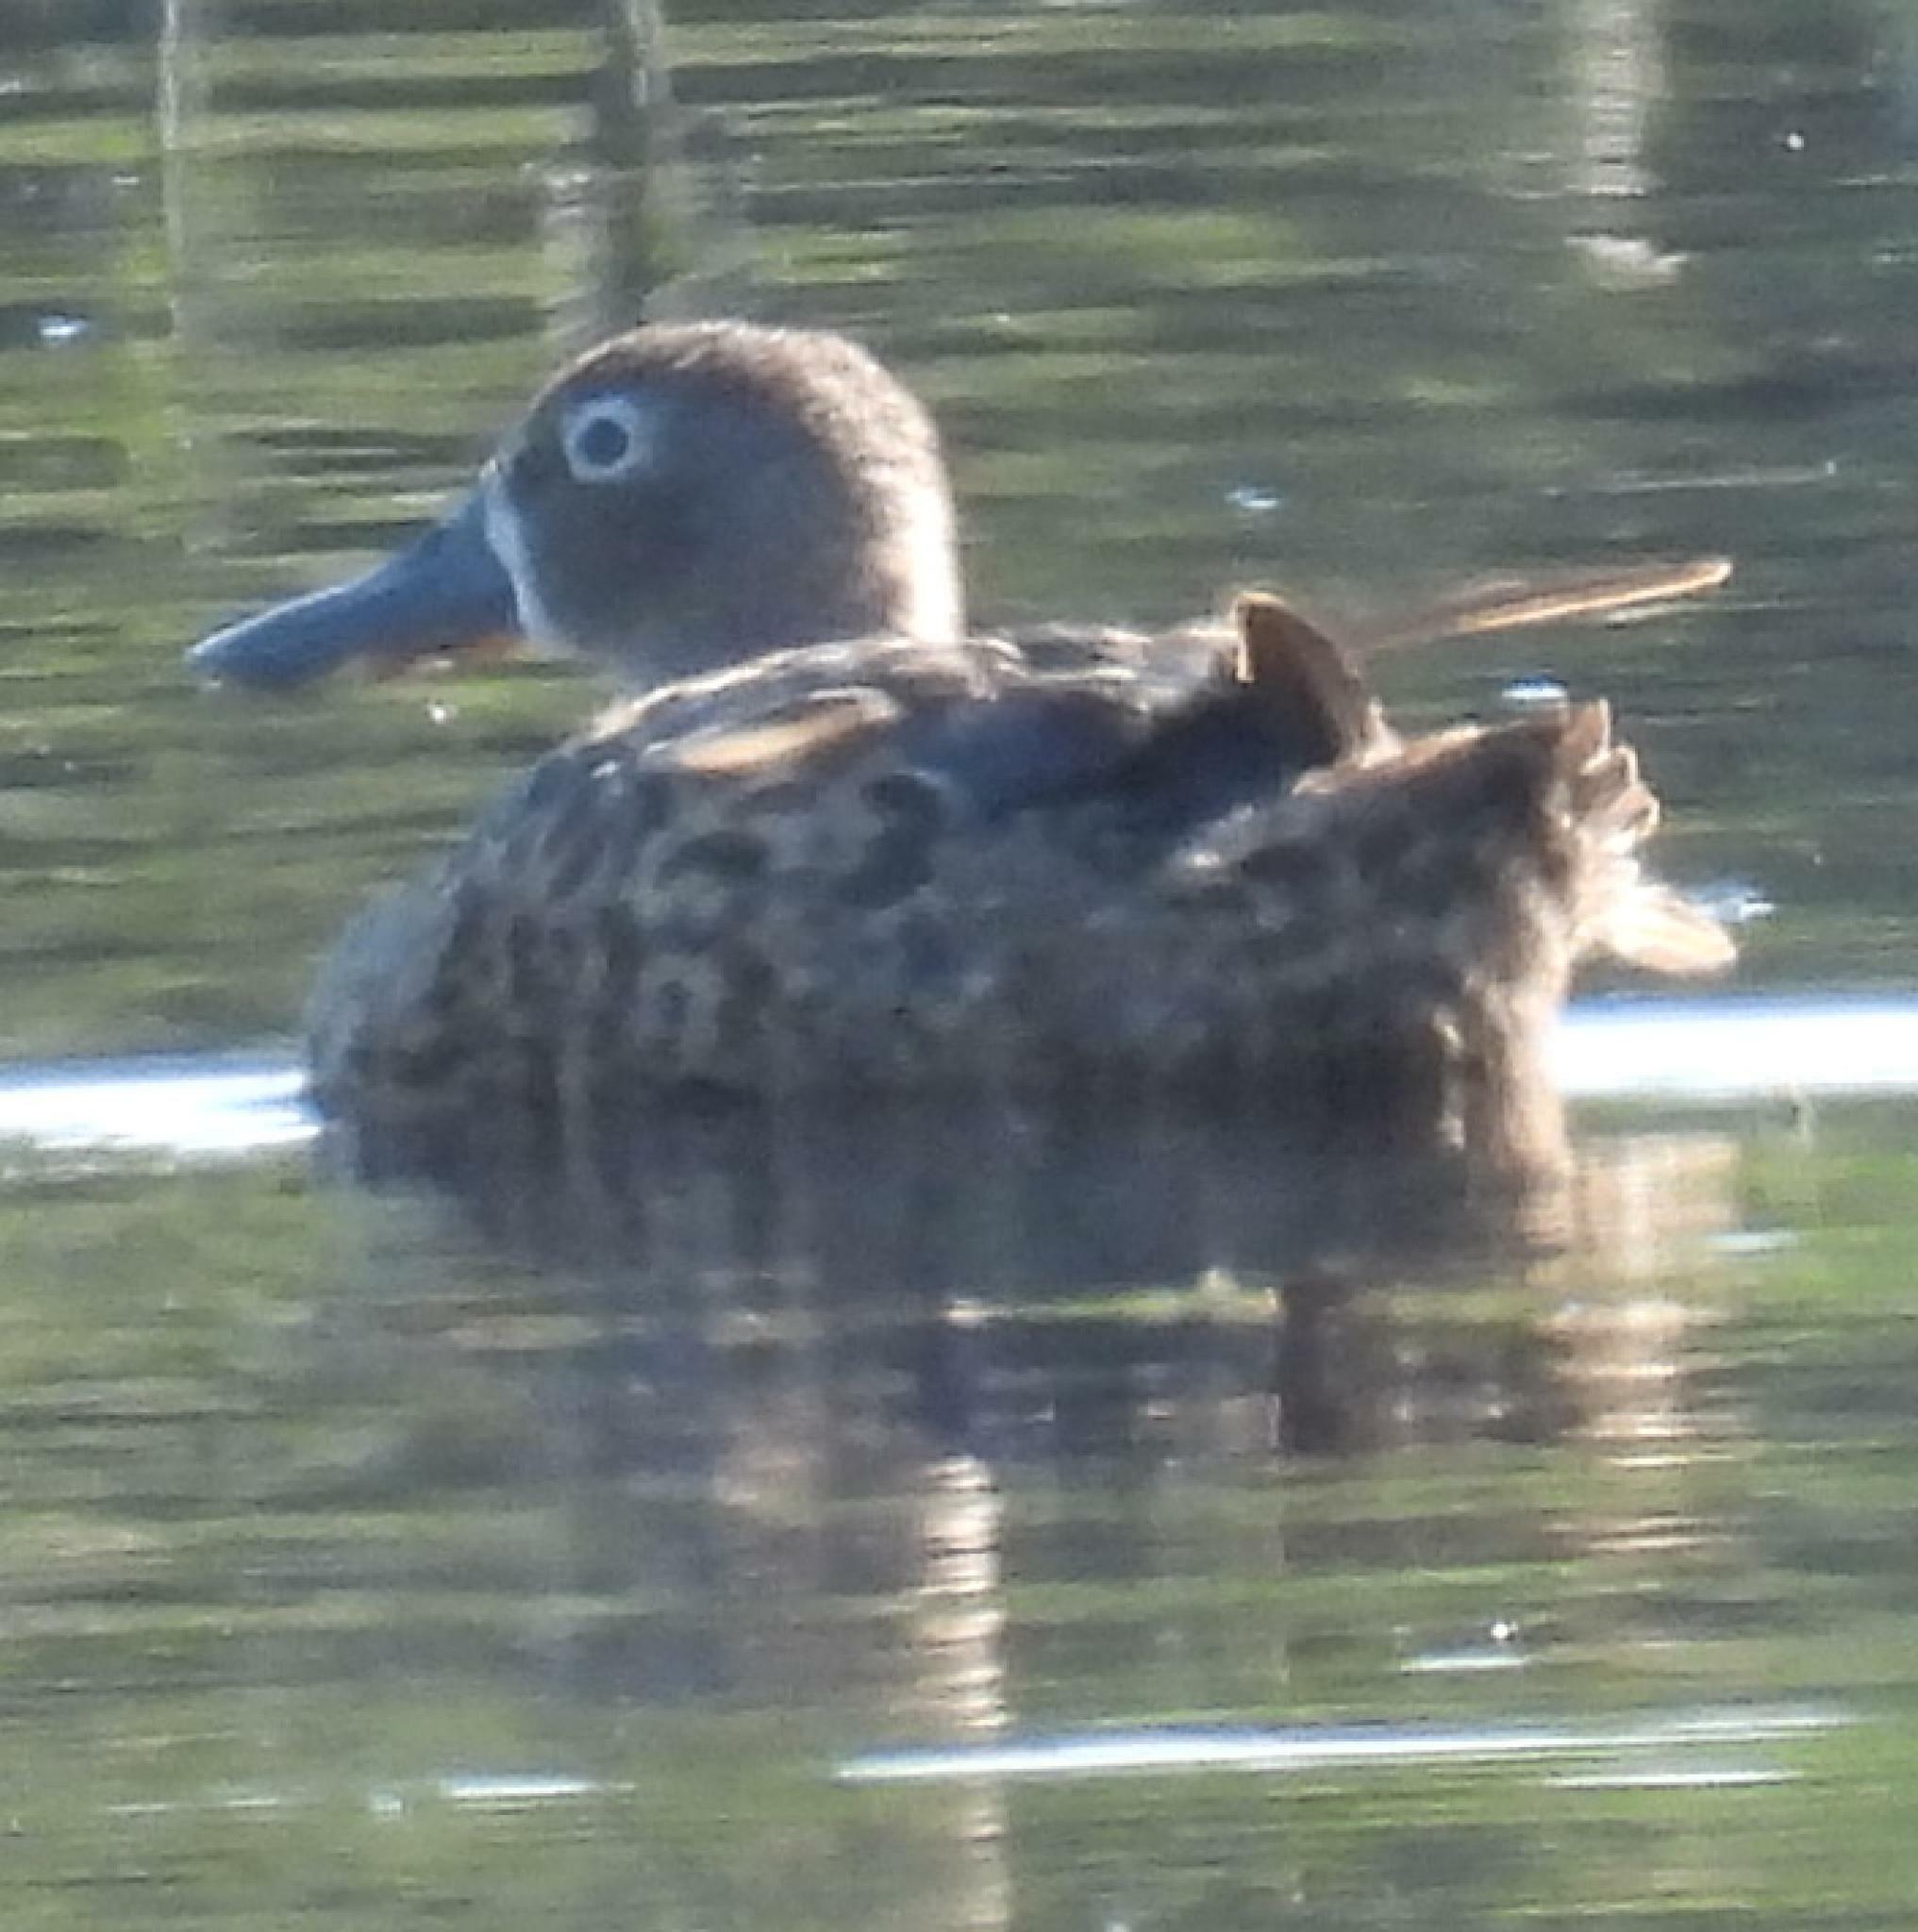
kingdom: Animalia
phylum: Chordata
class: Aves
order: Anseriformes
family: Anatidae
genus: Spatula
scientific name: Spatula smithii
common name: Cape shoveler
